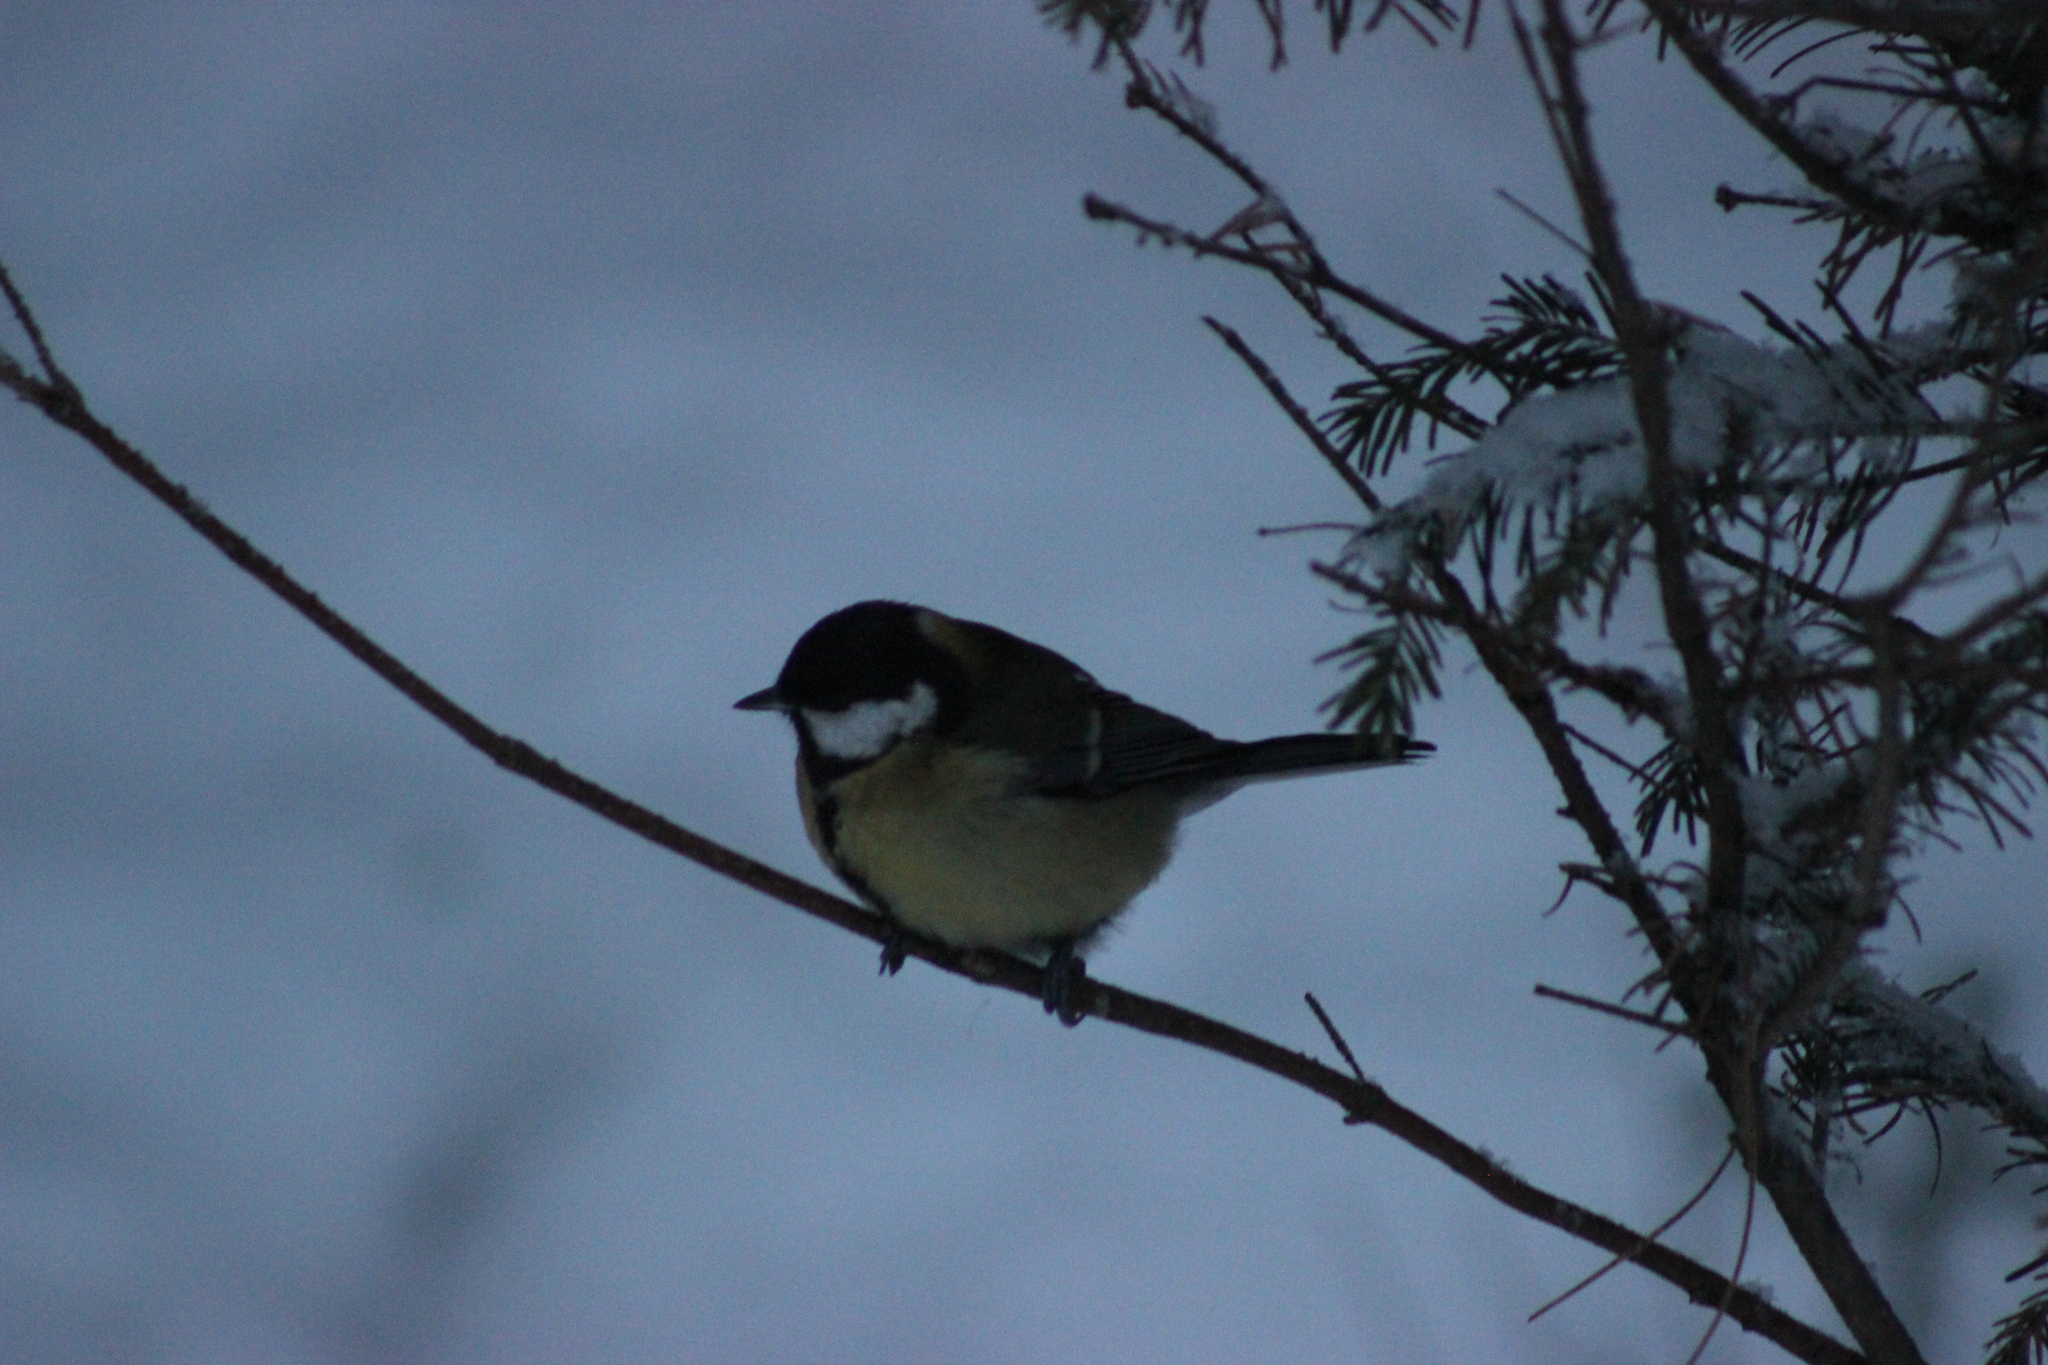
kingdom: Animalia
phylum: Chordata
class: Aves
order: Passeriformes
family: Paridae
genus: Parus
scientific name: Parus major
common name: Great tit
